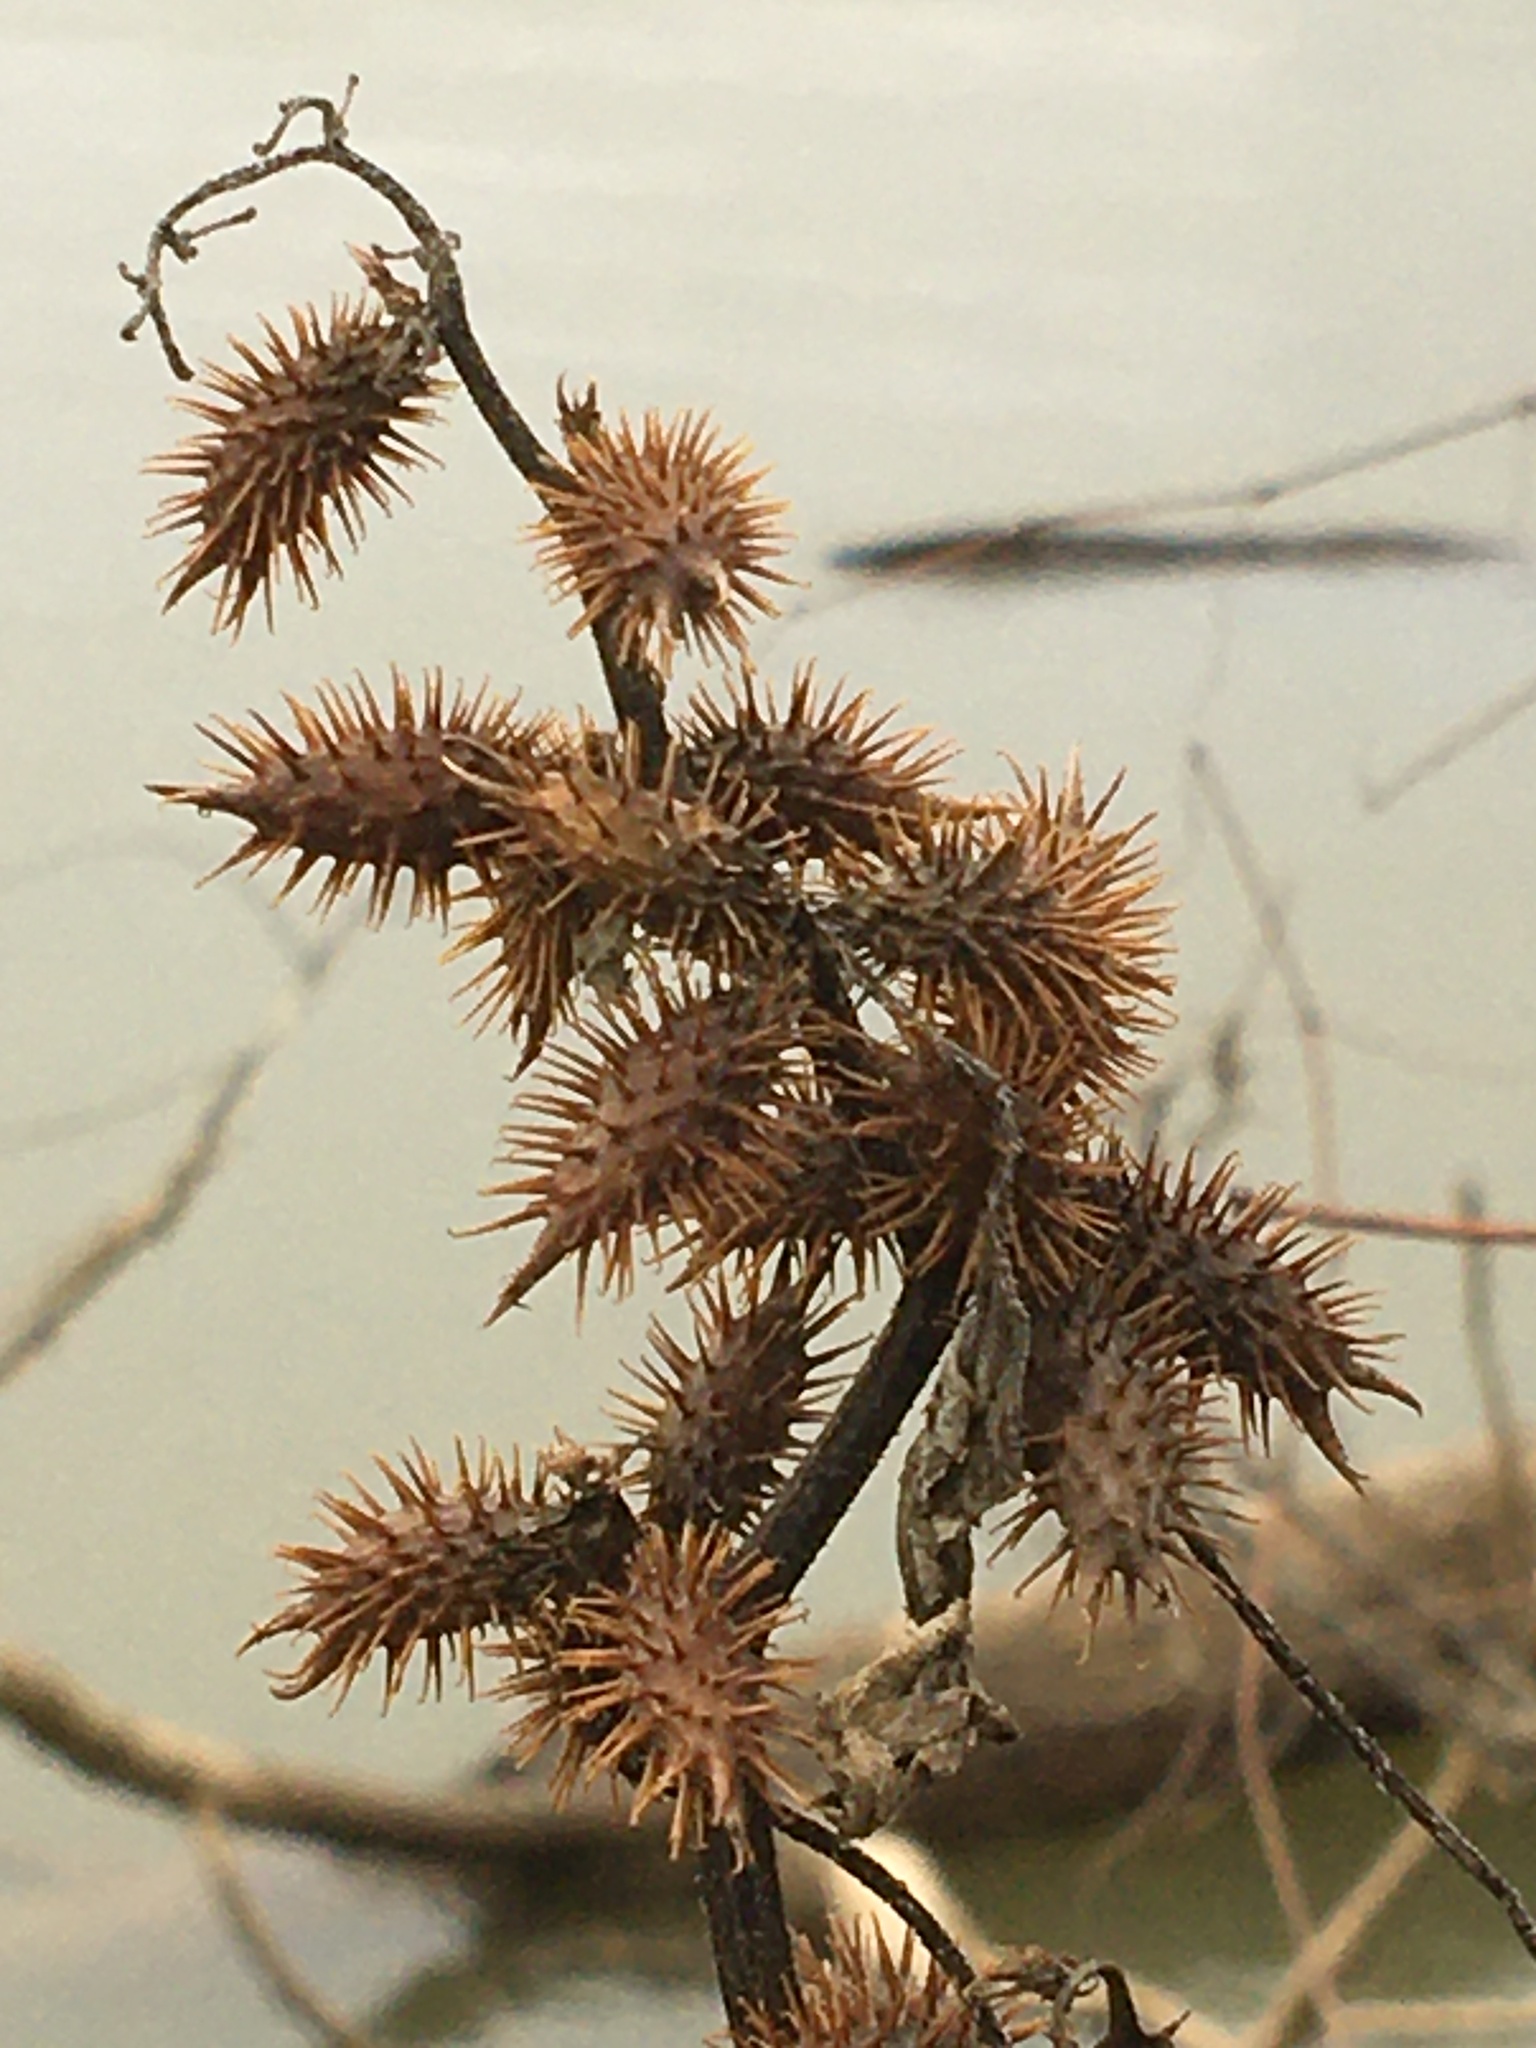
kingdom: Plantae
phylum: Tracheophyta
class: Magnoliopsida
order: Asterales
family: Asteraceae
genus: Xanthium
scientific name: Xanthium orientale
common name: Californian burr
